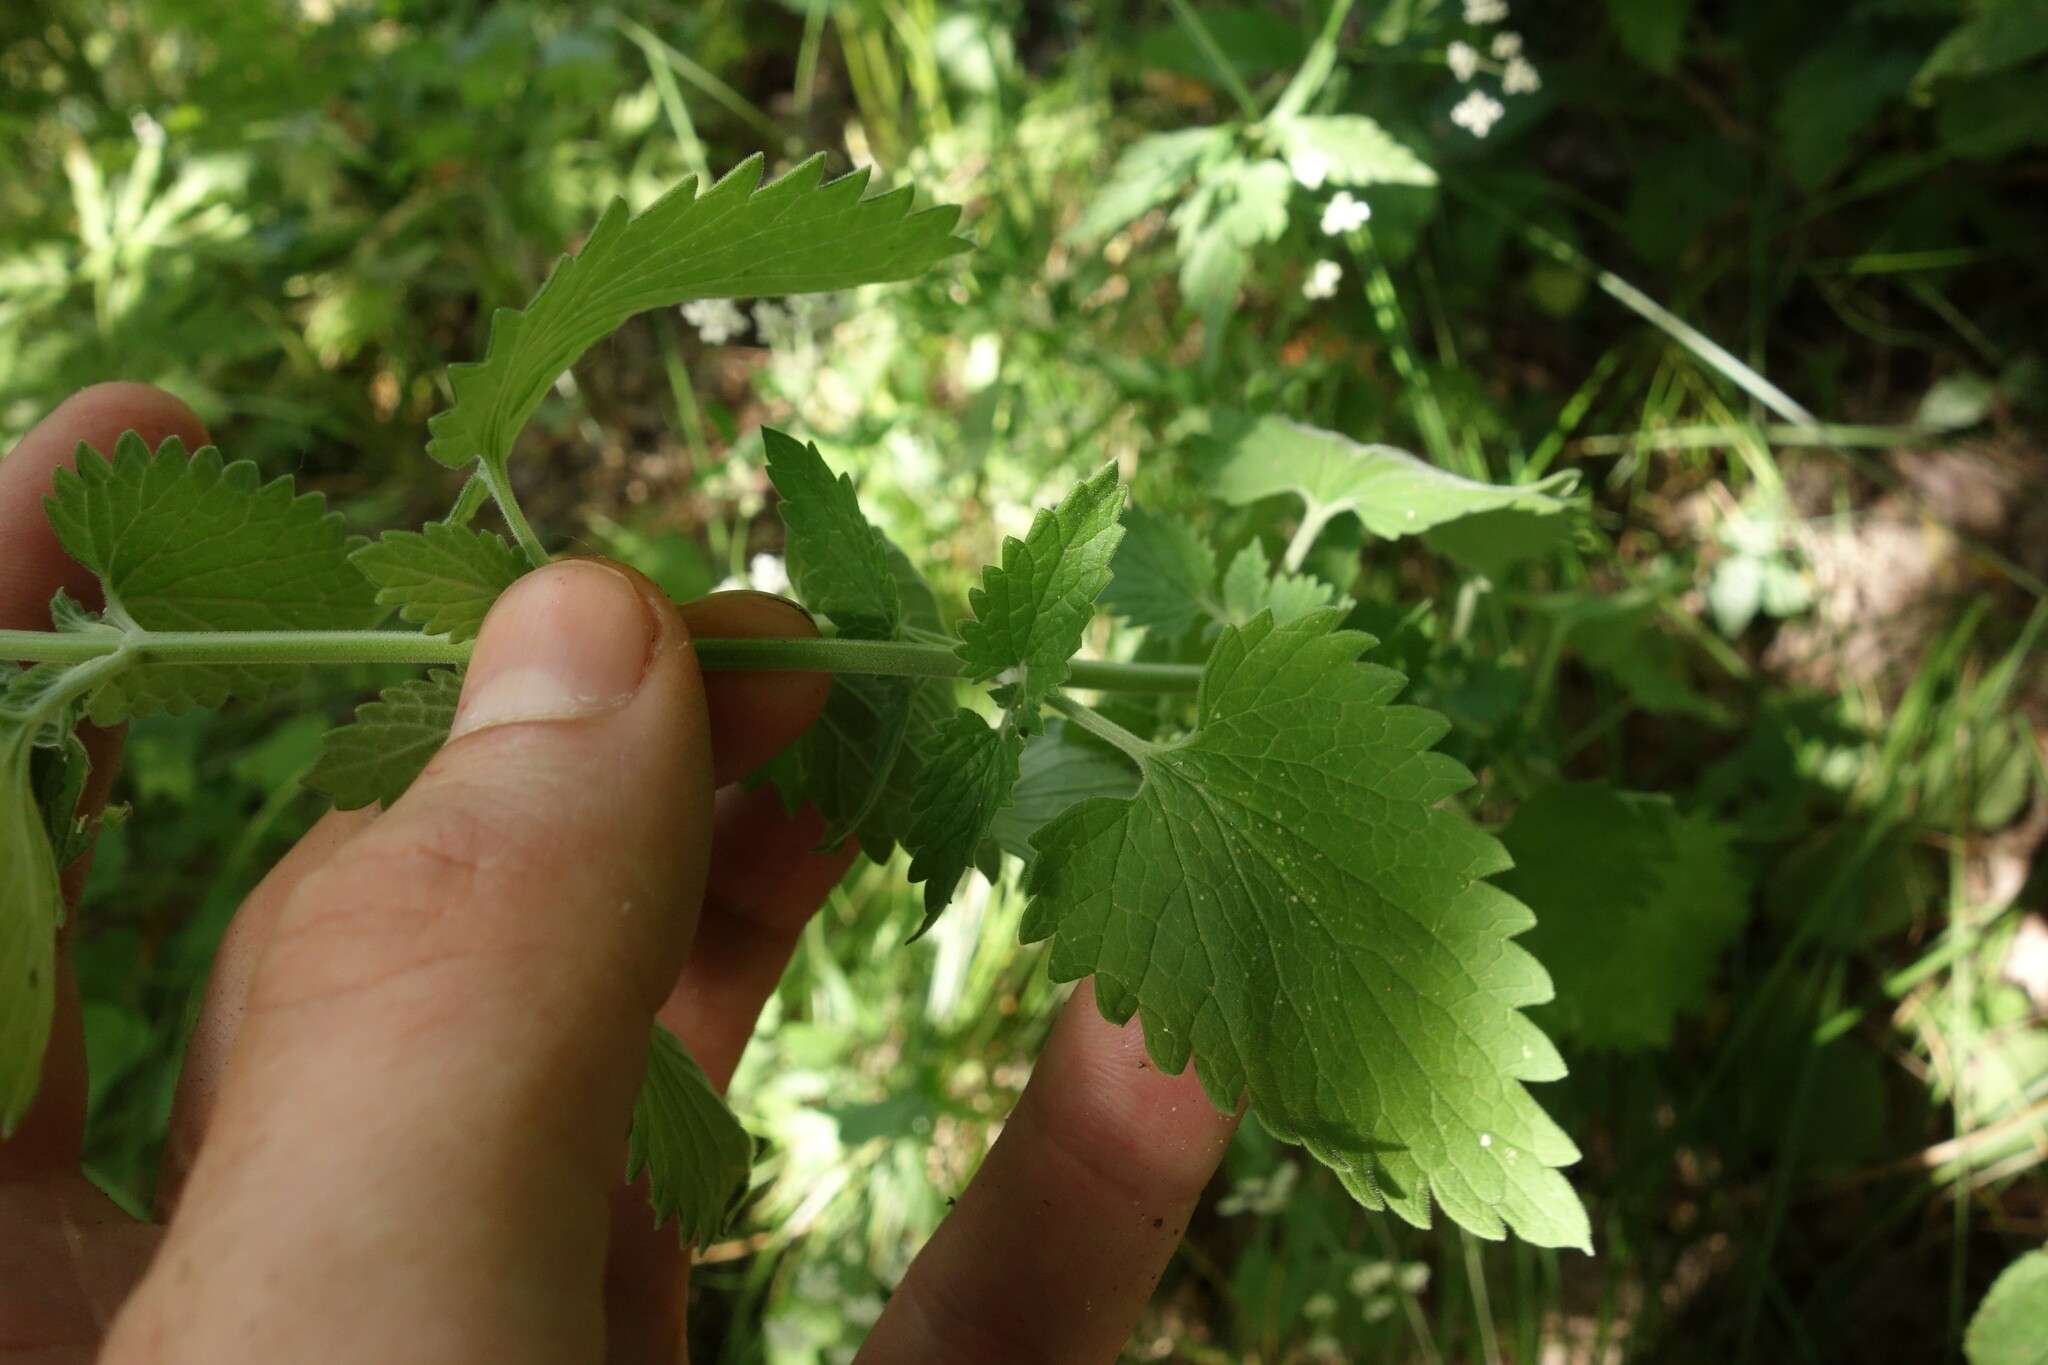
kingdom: Plantae
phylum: Tracheophyta
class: Magnoliopsida
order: Lamiales
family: Lamiaceae
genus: Nepeta
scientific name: Nepeta cataria
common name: Catnip
